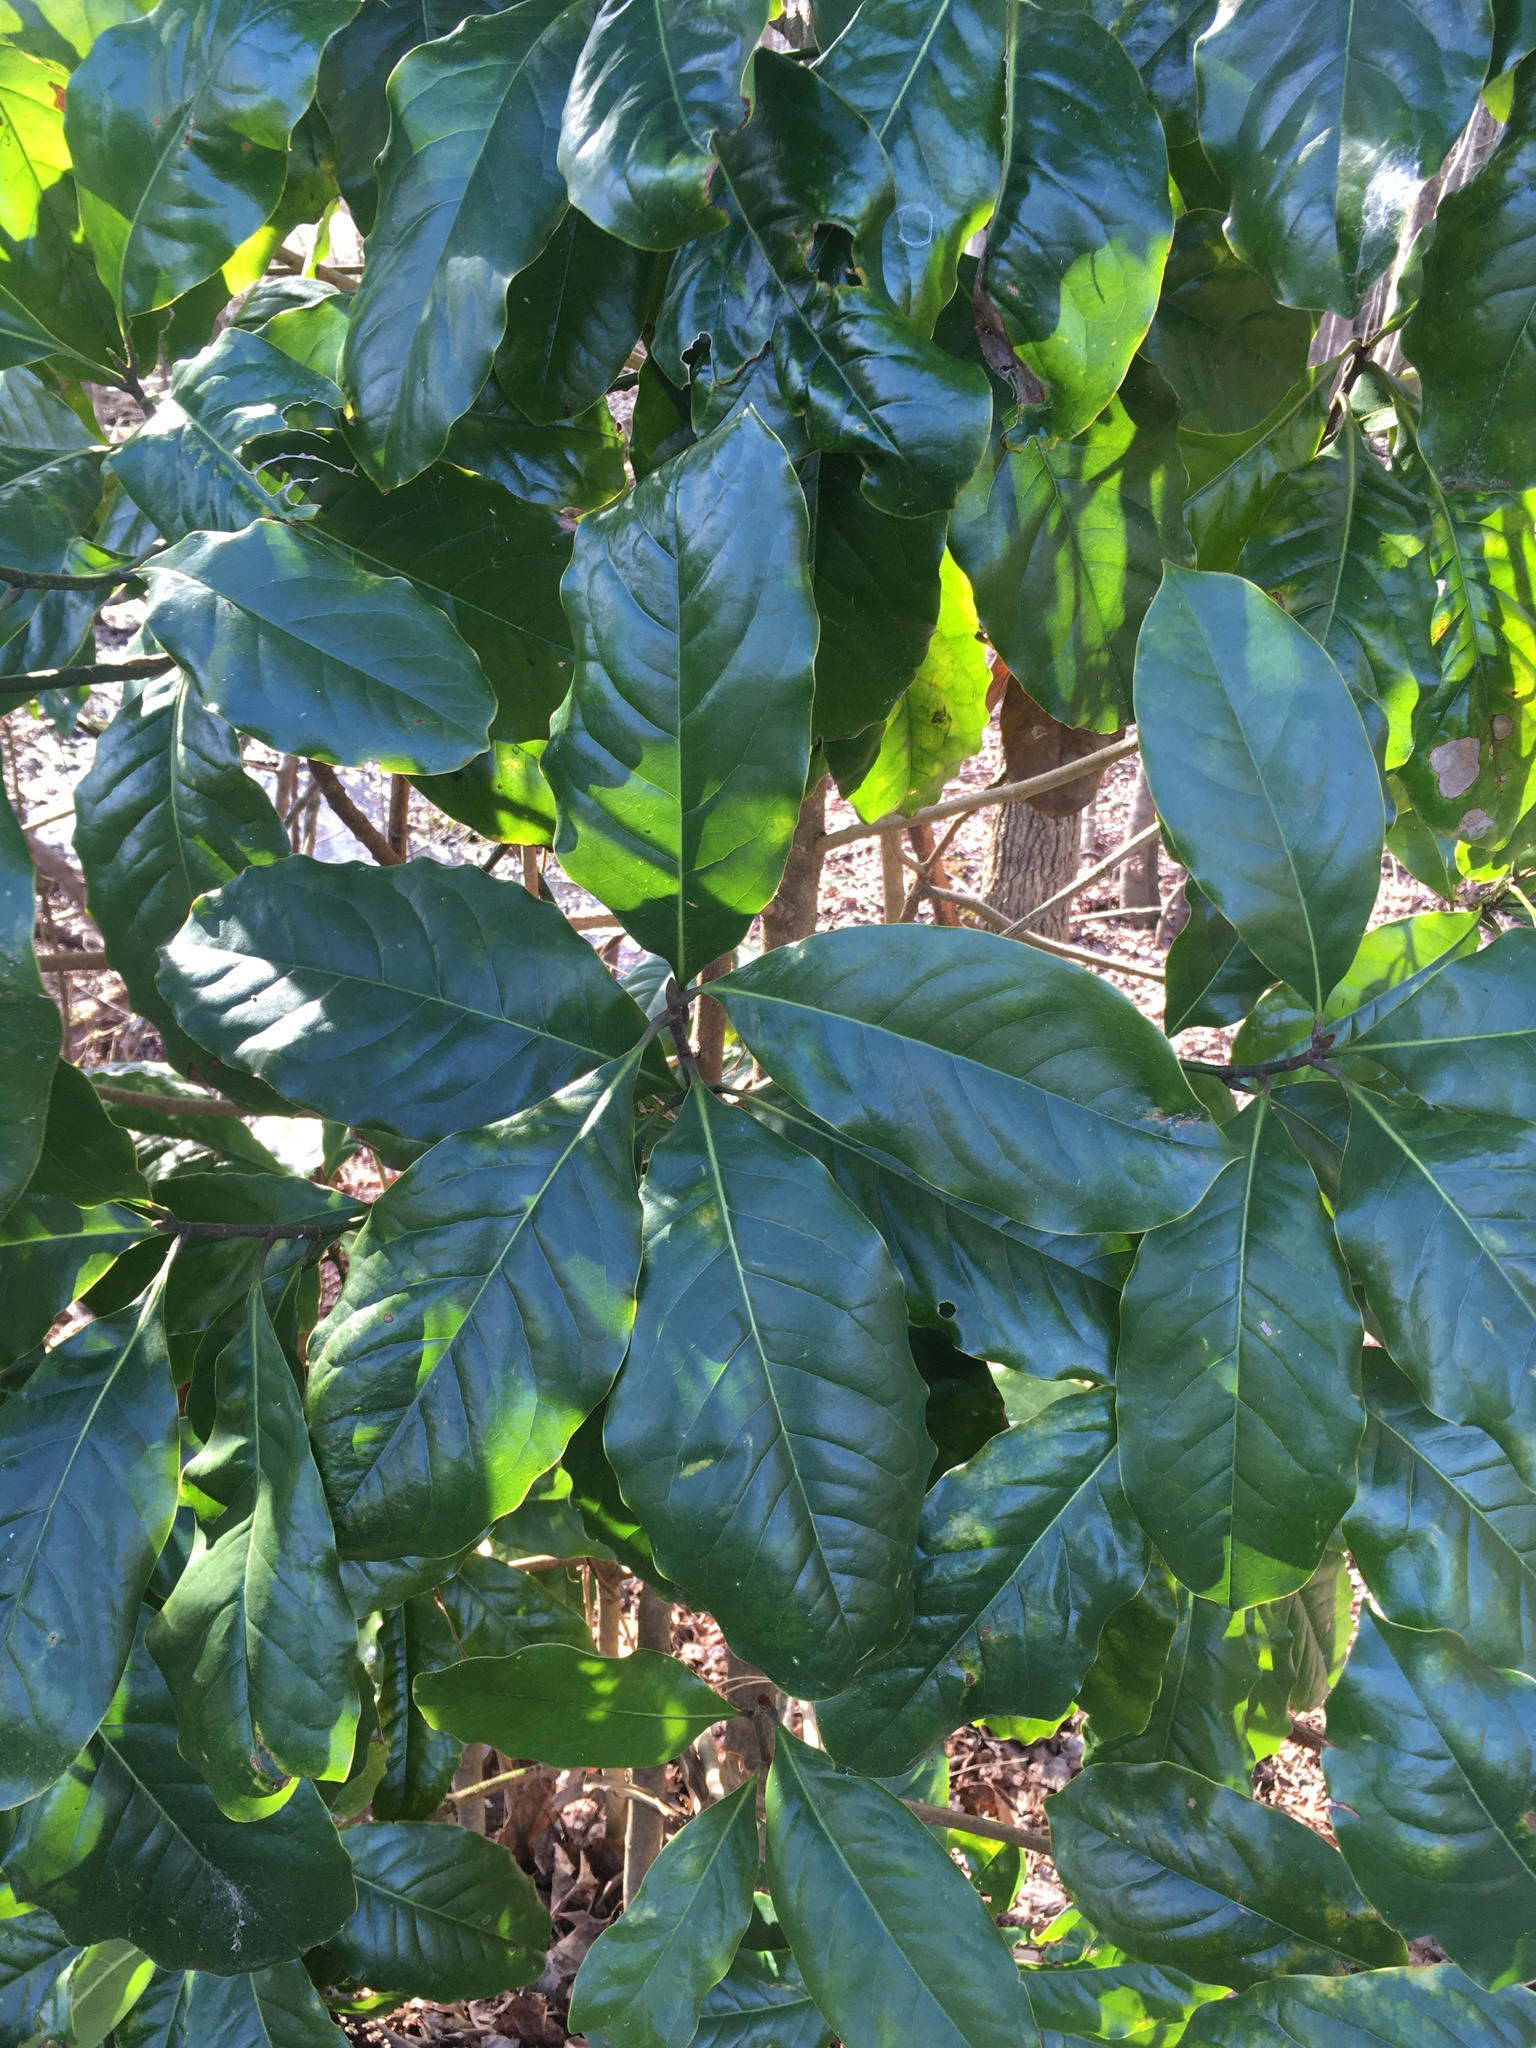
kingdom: Plantae
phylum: Tracheophyta
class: Magnoliopsida
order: Magnoliales
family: Magnoliaceae
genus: Magnolia
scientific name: Magnolia grandiflora
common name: Southern magnolia
